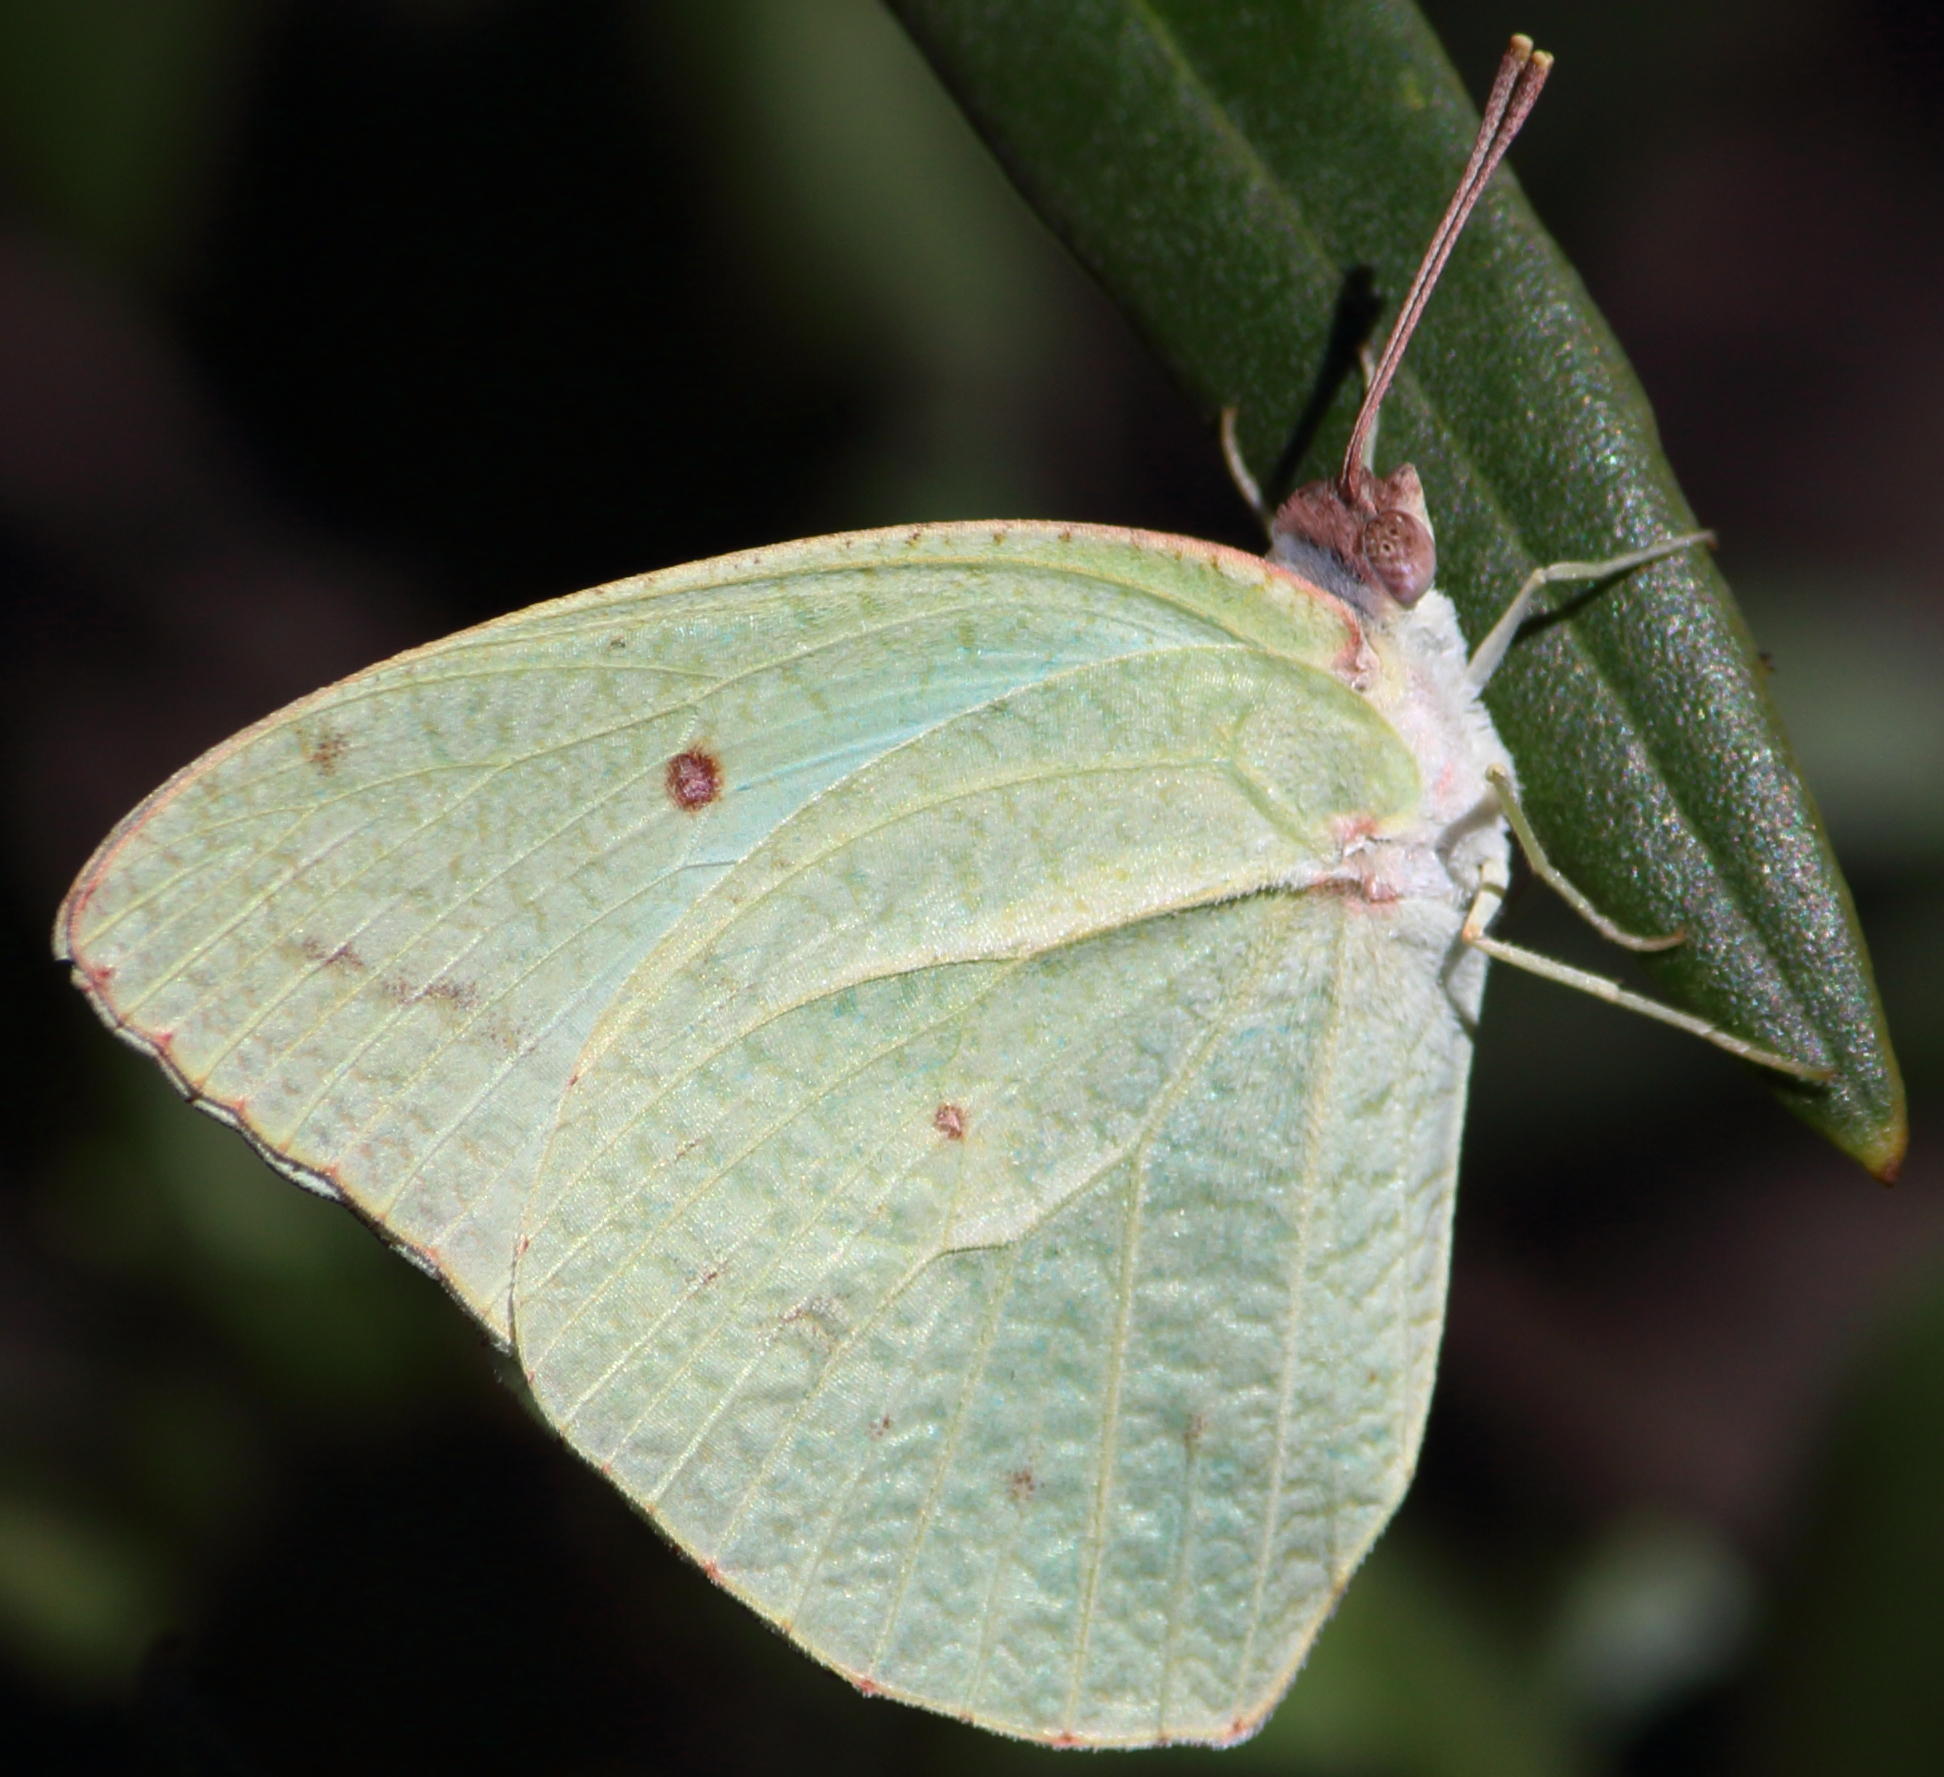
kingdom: Animalia
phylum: Arthropoda
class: Insecta
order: Lepidoptera
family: Pieridae
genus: Catopsilia
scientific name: Catopsilia florella
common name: African migrant
